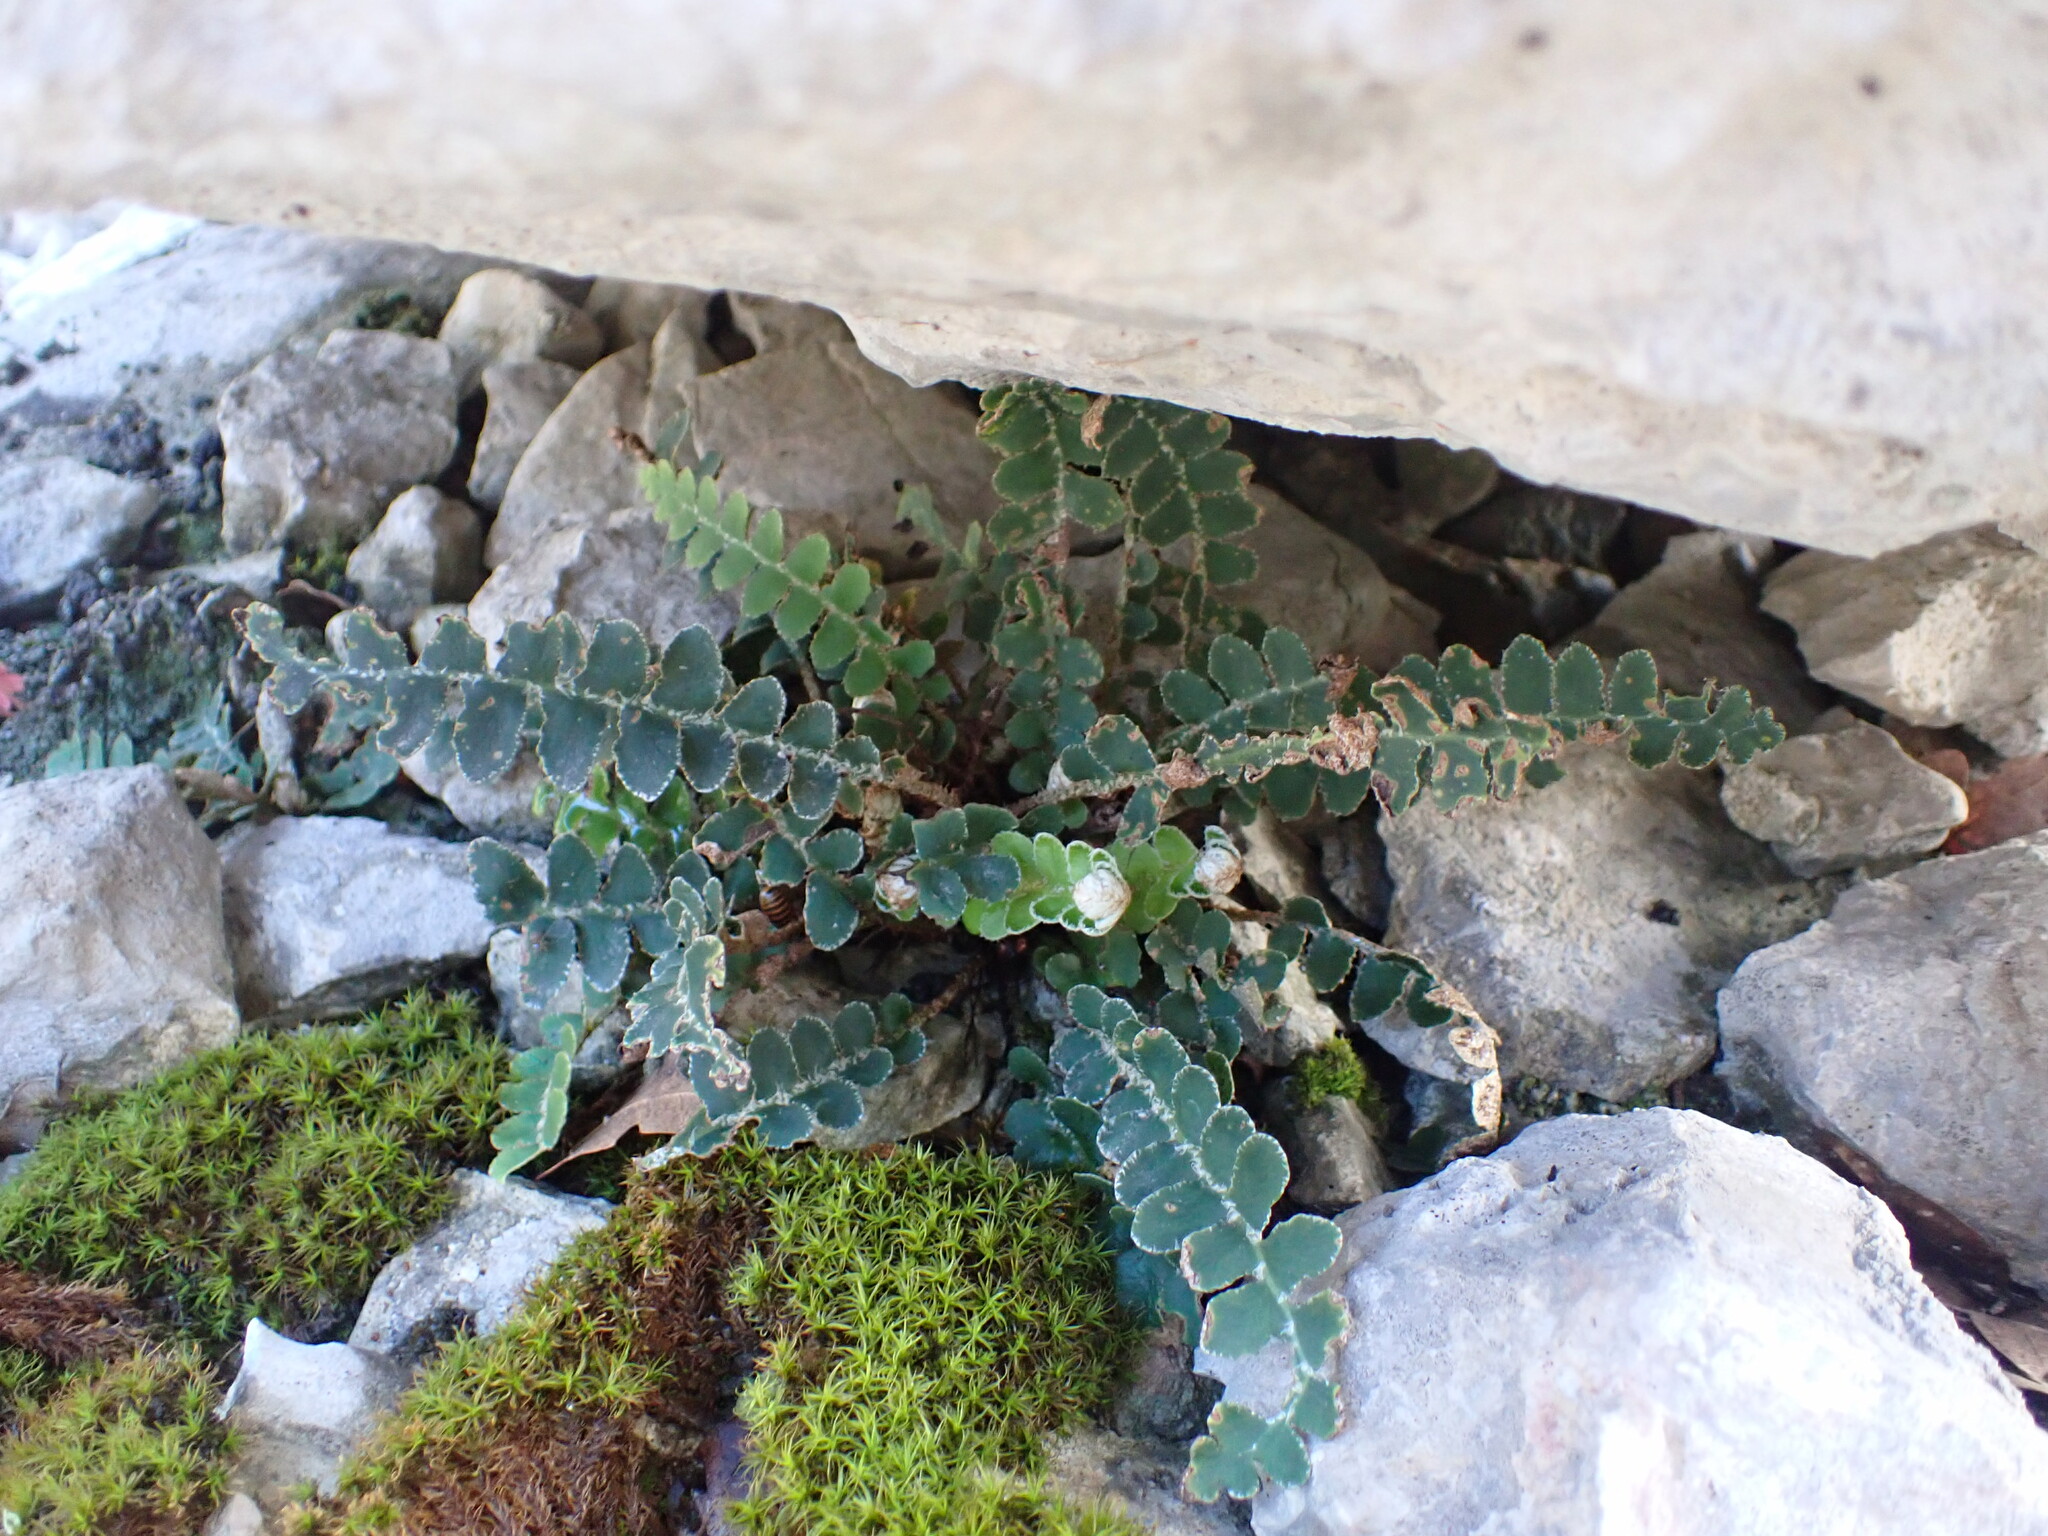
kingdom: Plantae
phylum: Tracheophyta
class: Polypodiopsida
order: Polypodiales
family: Aspleniaceae
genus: Asplenium
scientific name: Asplenium ceterach
